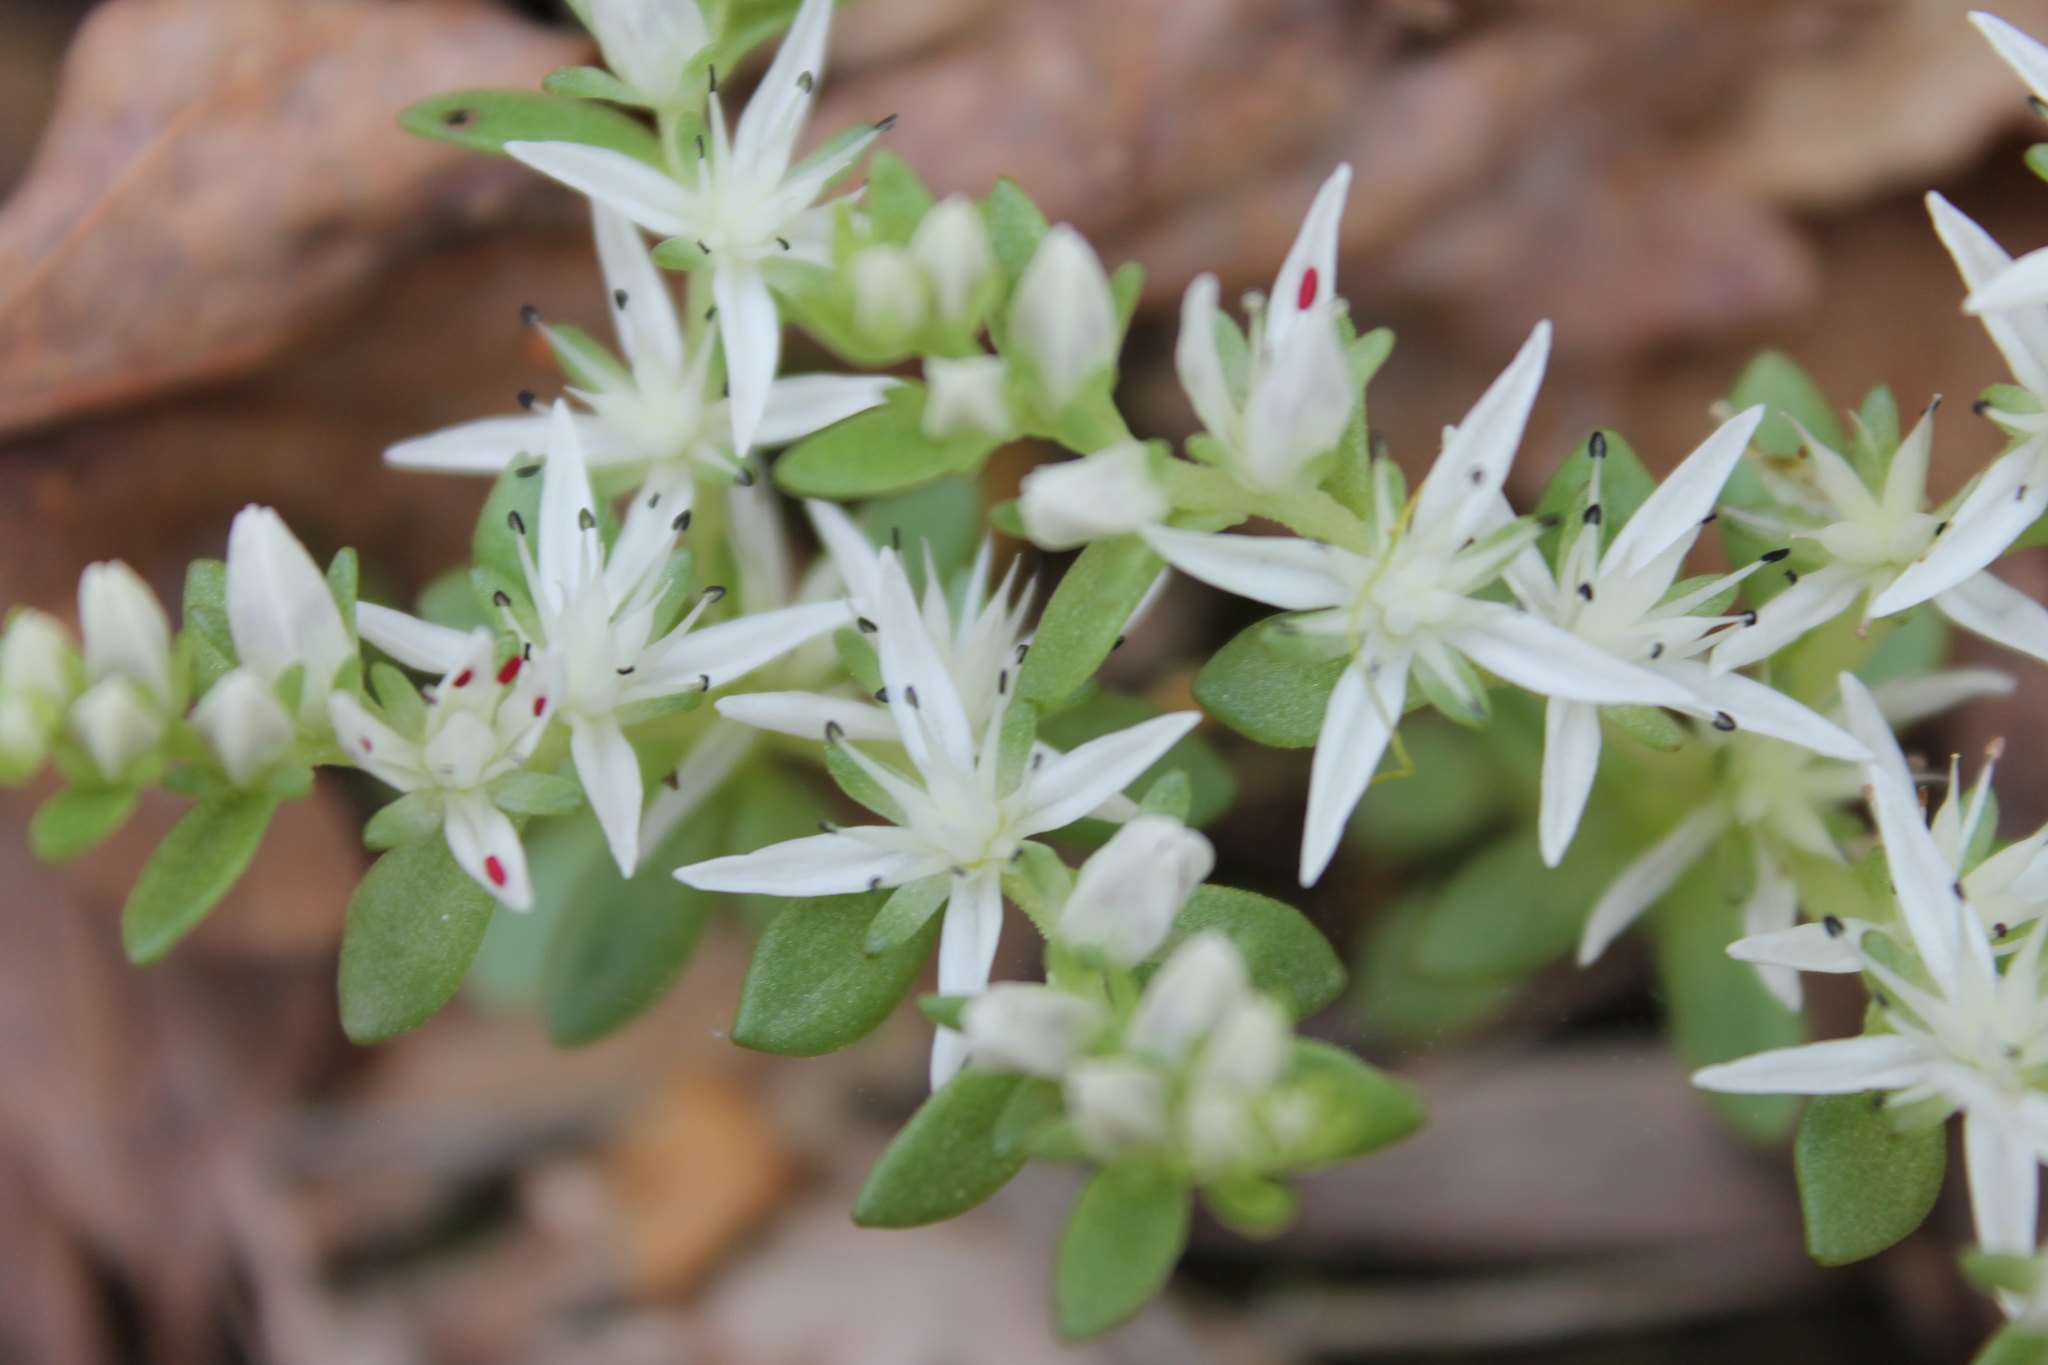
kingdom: Plantae
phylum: Tracheophyta
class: Magnoliopsida
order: Saxifragales
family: Crassulaceae
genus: Sedum
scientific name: Sedum ternatum
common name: Wild stonecrop
